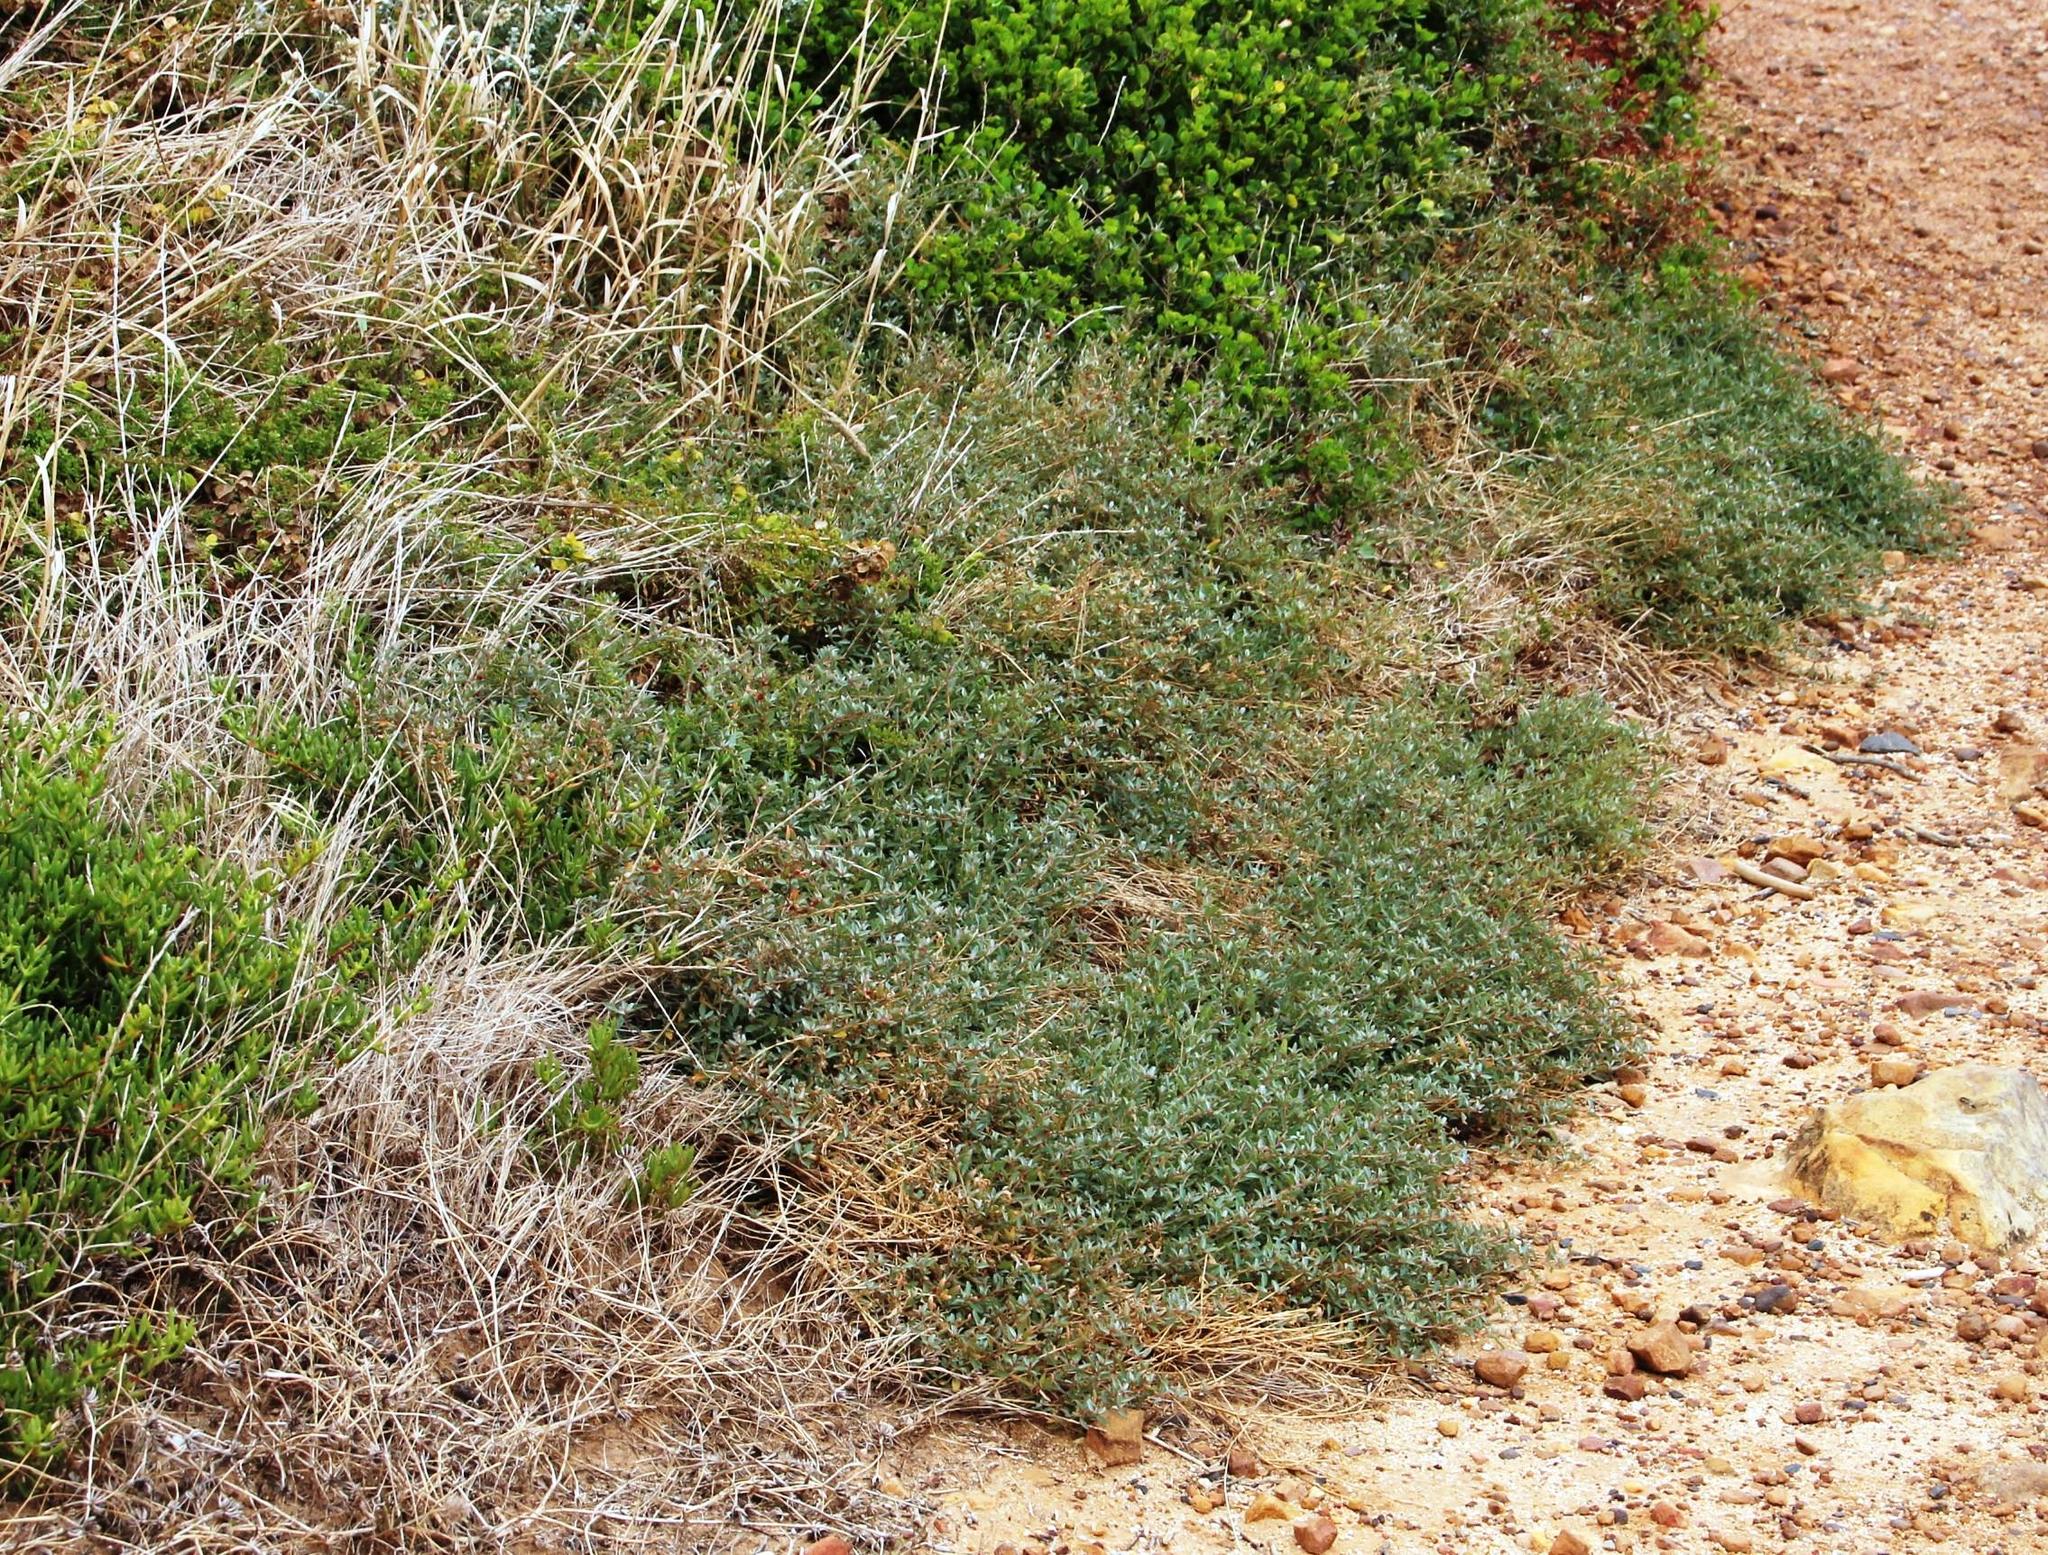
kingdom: Plantae
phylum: Tracheophyta
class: Magnoliopsida
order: Caryophyllales
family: Amaranthaceae
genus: Atriplex
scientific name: Atriplex semibaccata
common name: Australian saltbush
